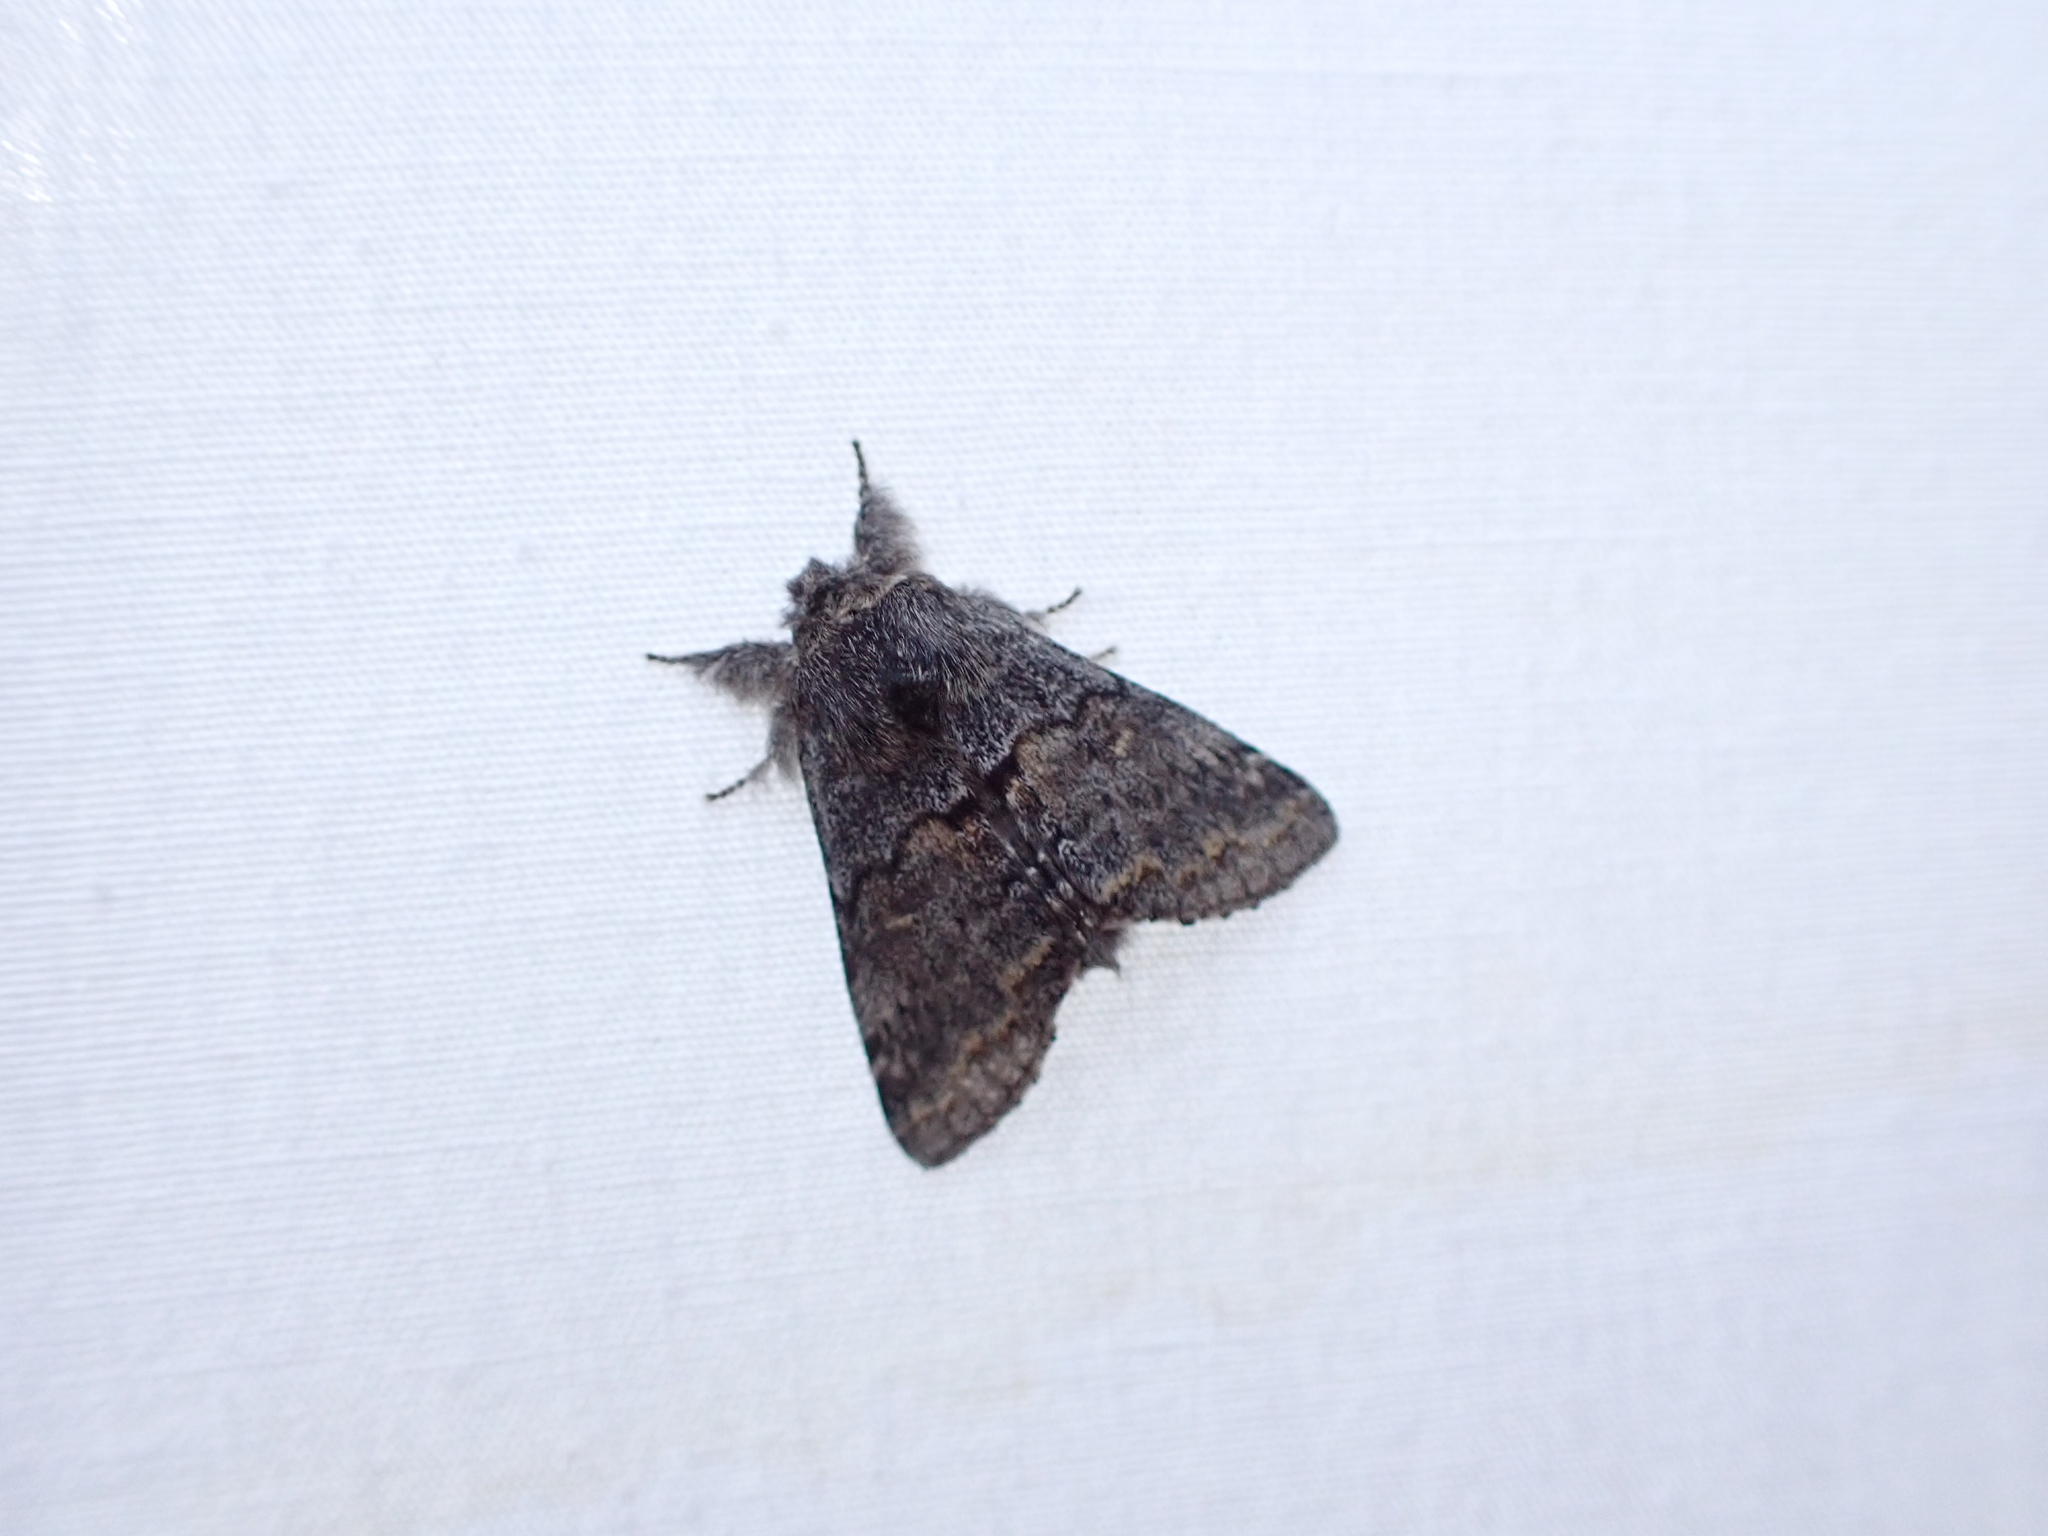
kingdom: Animalia
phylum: Arthropoda
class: Insecta
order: Lepidoptera
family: Notodontidae
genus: Gluphisia
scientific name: Gluphisia severa
